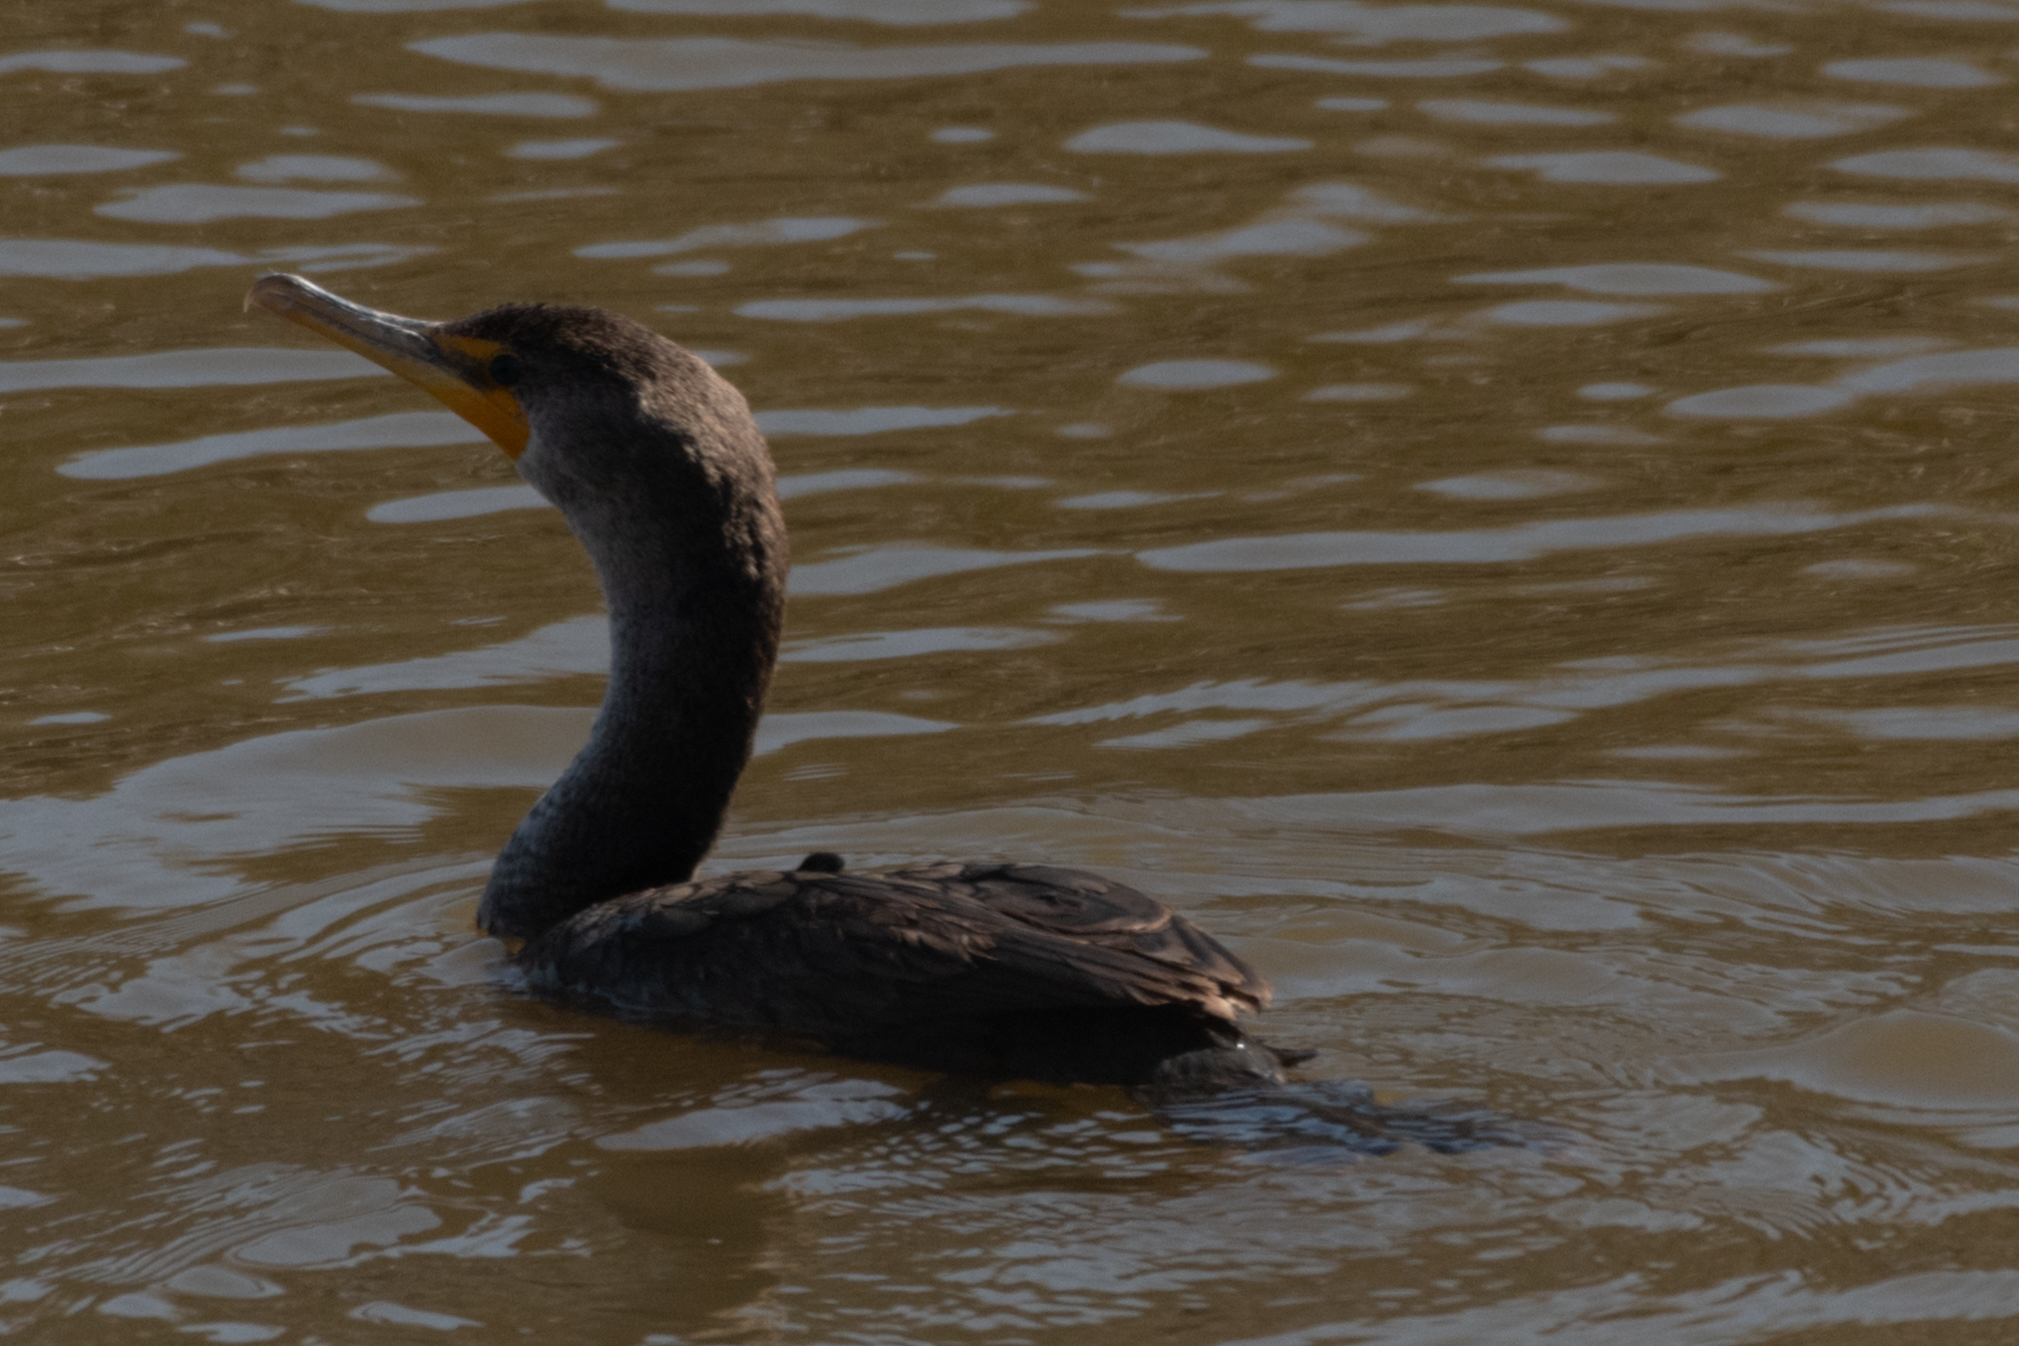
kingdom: Animalia
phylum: Chordata
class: Aves
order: Suliformes
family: Phalacrocoracidae
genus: Phalacrocorax
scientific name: Phalacrocorax auritus
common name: Double-crested cormorant
